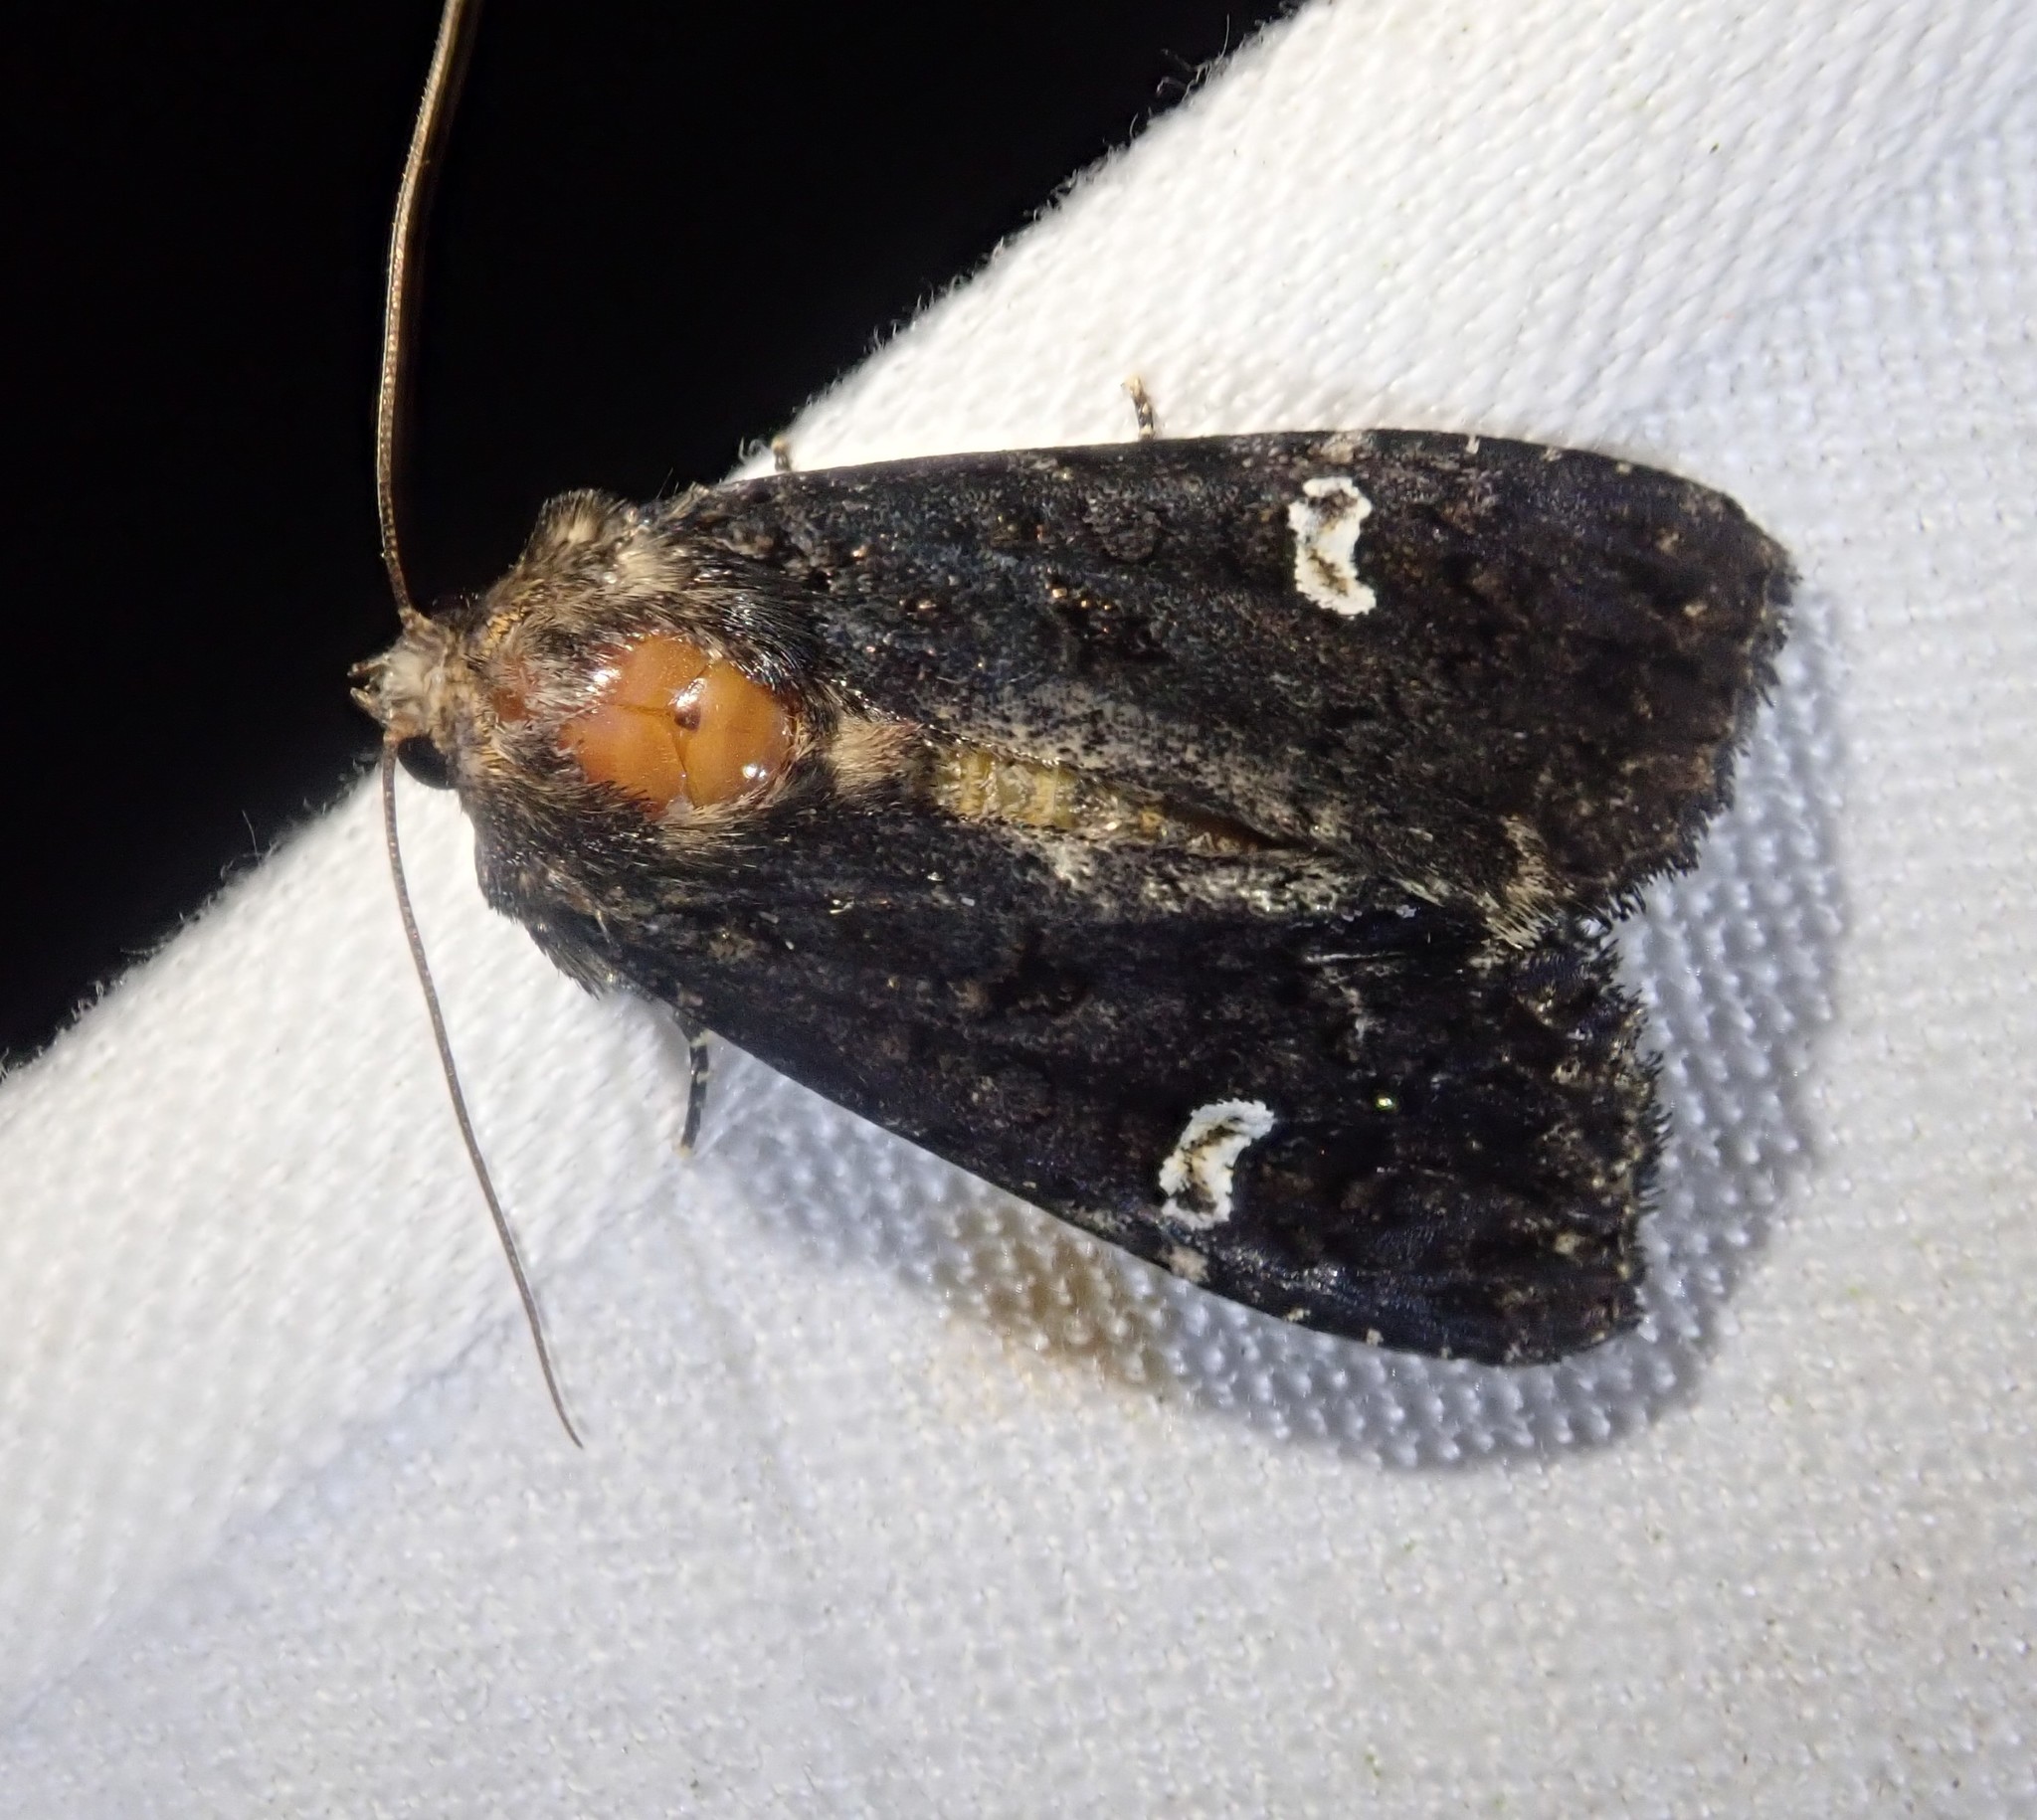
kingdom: Animalia
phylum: Arthropoda
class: Insecta
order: Lepidoptera
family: Noctuidae
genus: Melanchra
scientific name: Melanchra persicariae
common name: Dot moth
